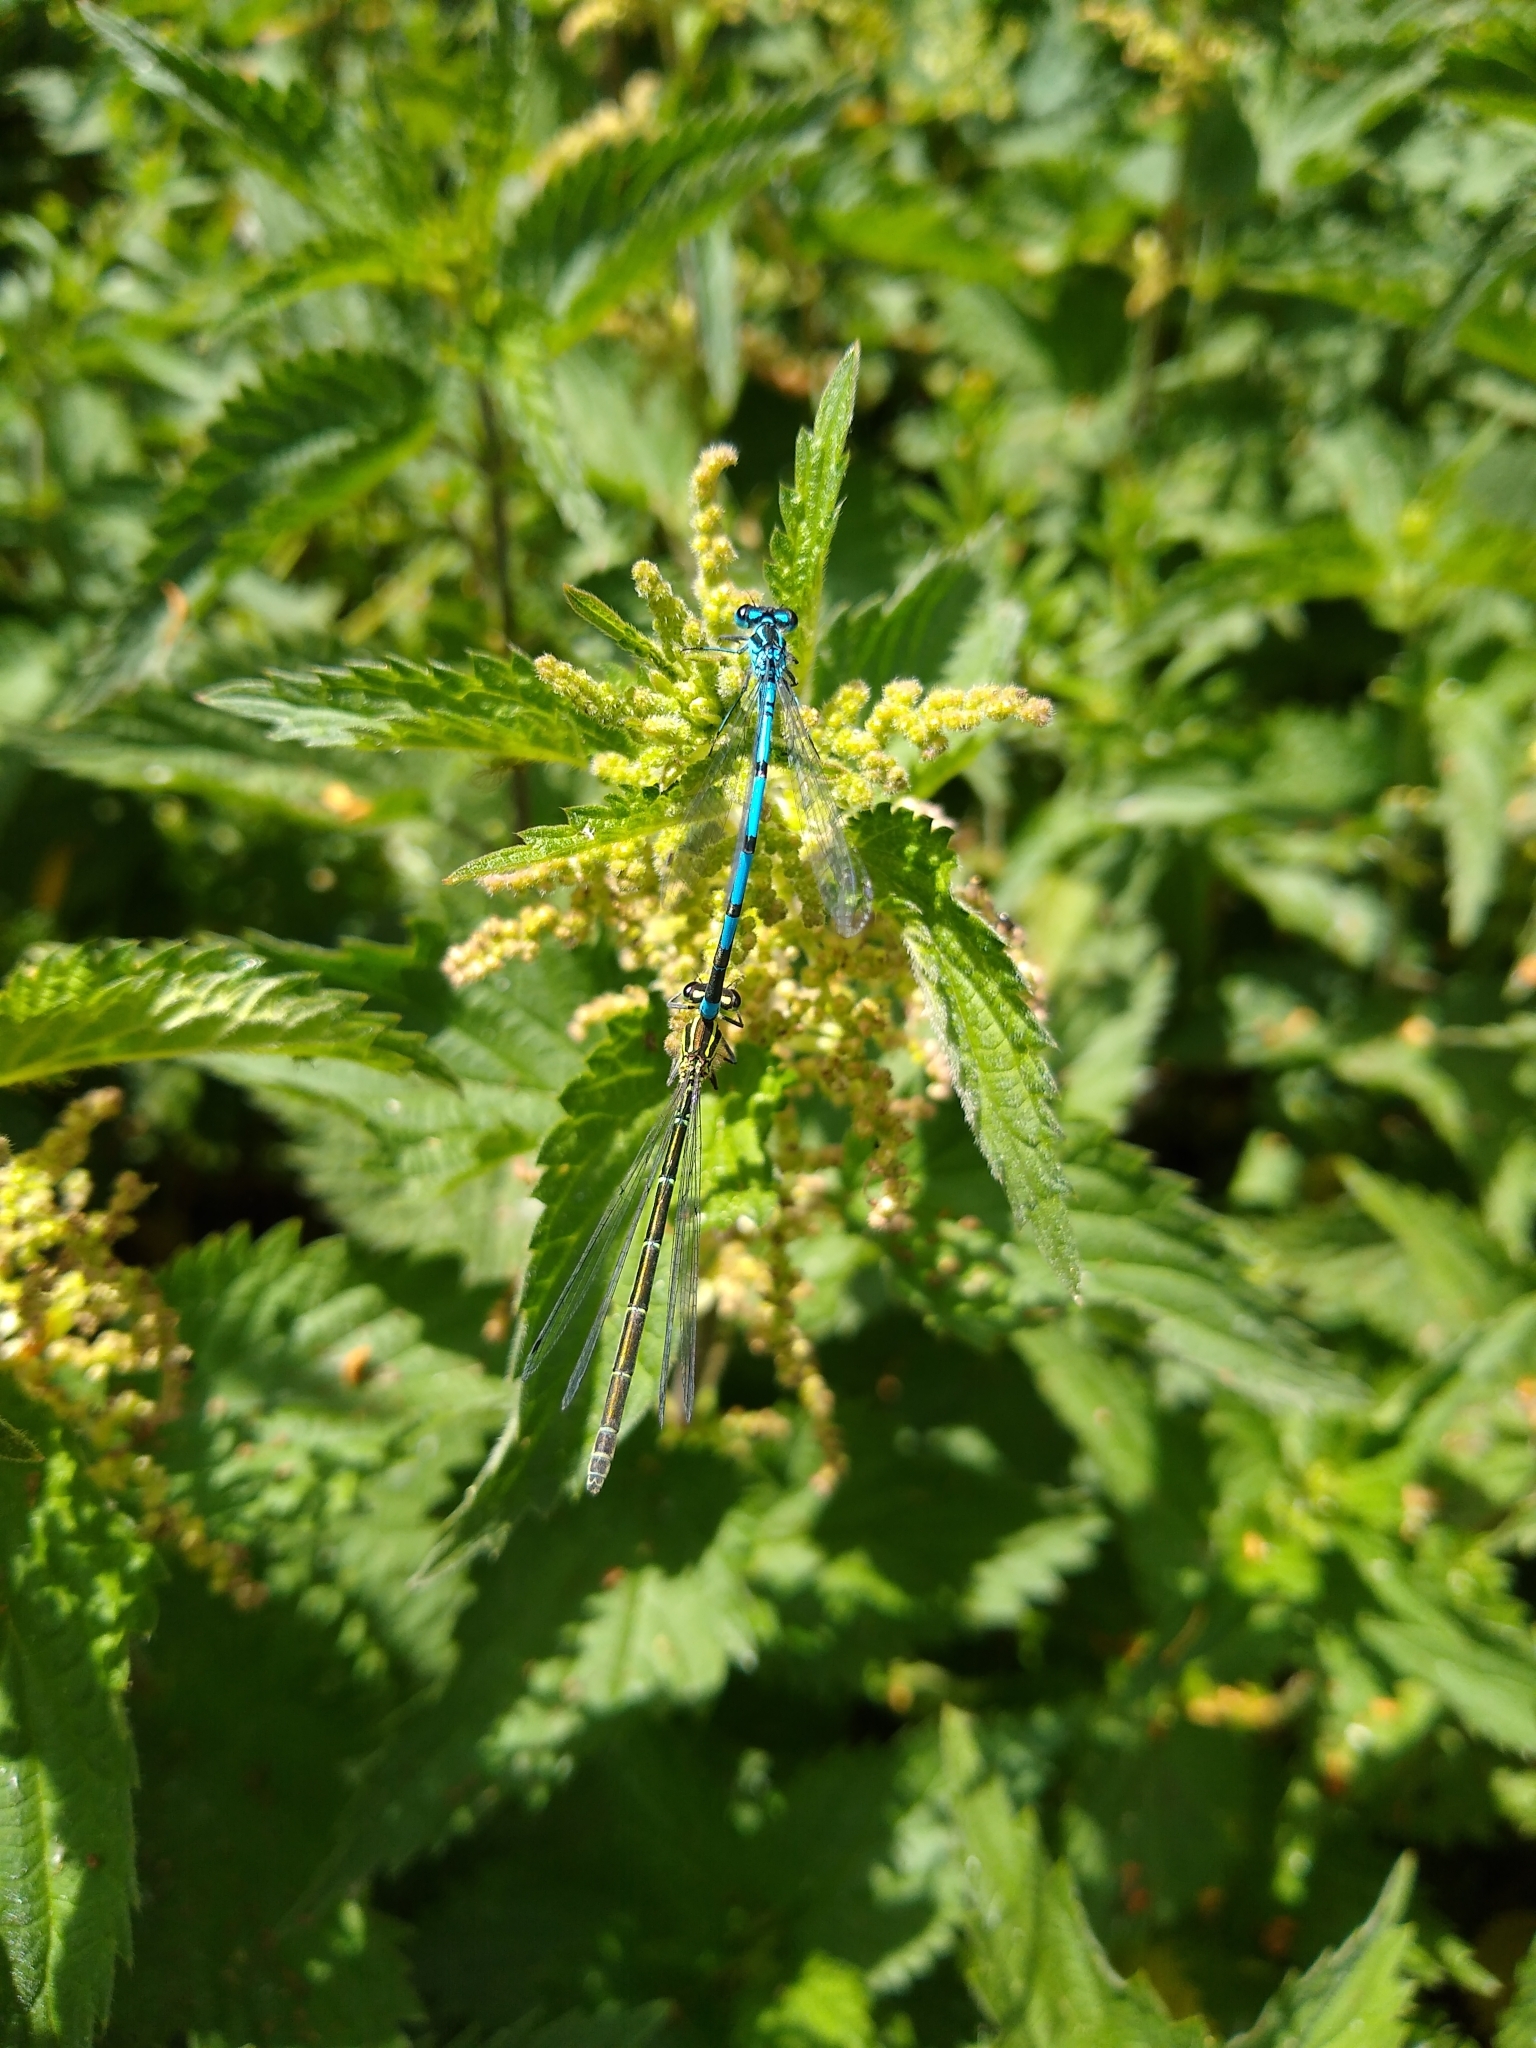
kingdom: Animalia
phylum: Arthropoda
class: Insecta
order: Odonata
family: Coenagrionidae
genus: Coenagrion
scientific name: Coenagrion puella
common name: Azure damselfly
